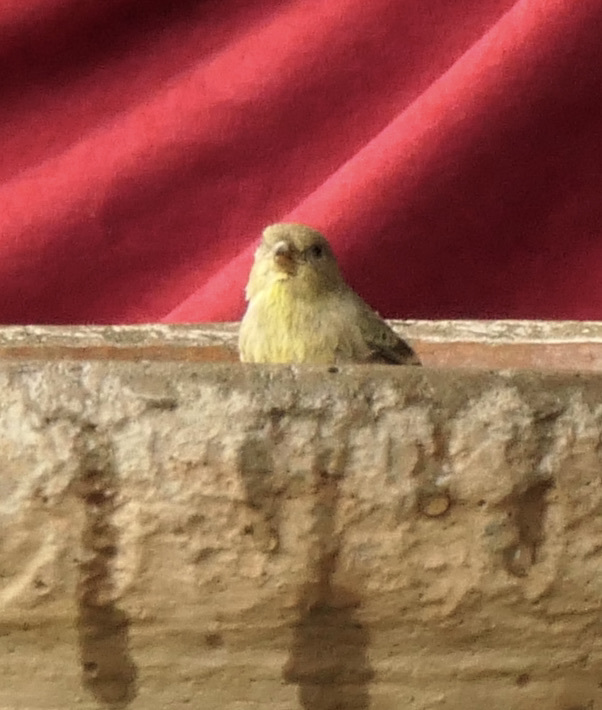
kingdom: Animalia
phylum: Chordata
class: Aves
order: Passeriformes
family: Fringillidae
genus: Spinus
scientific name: Spinus psaltria
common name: Lesser goldfinch
